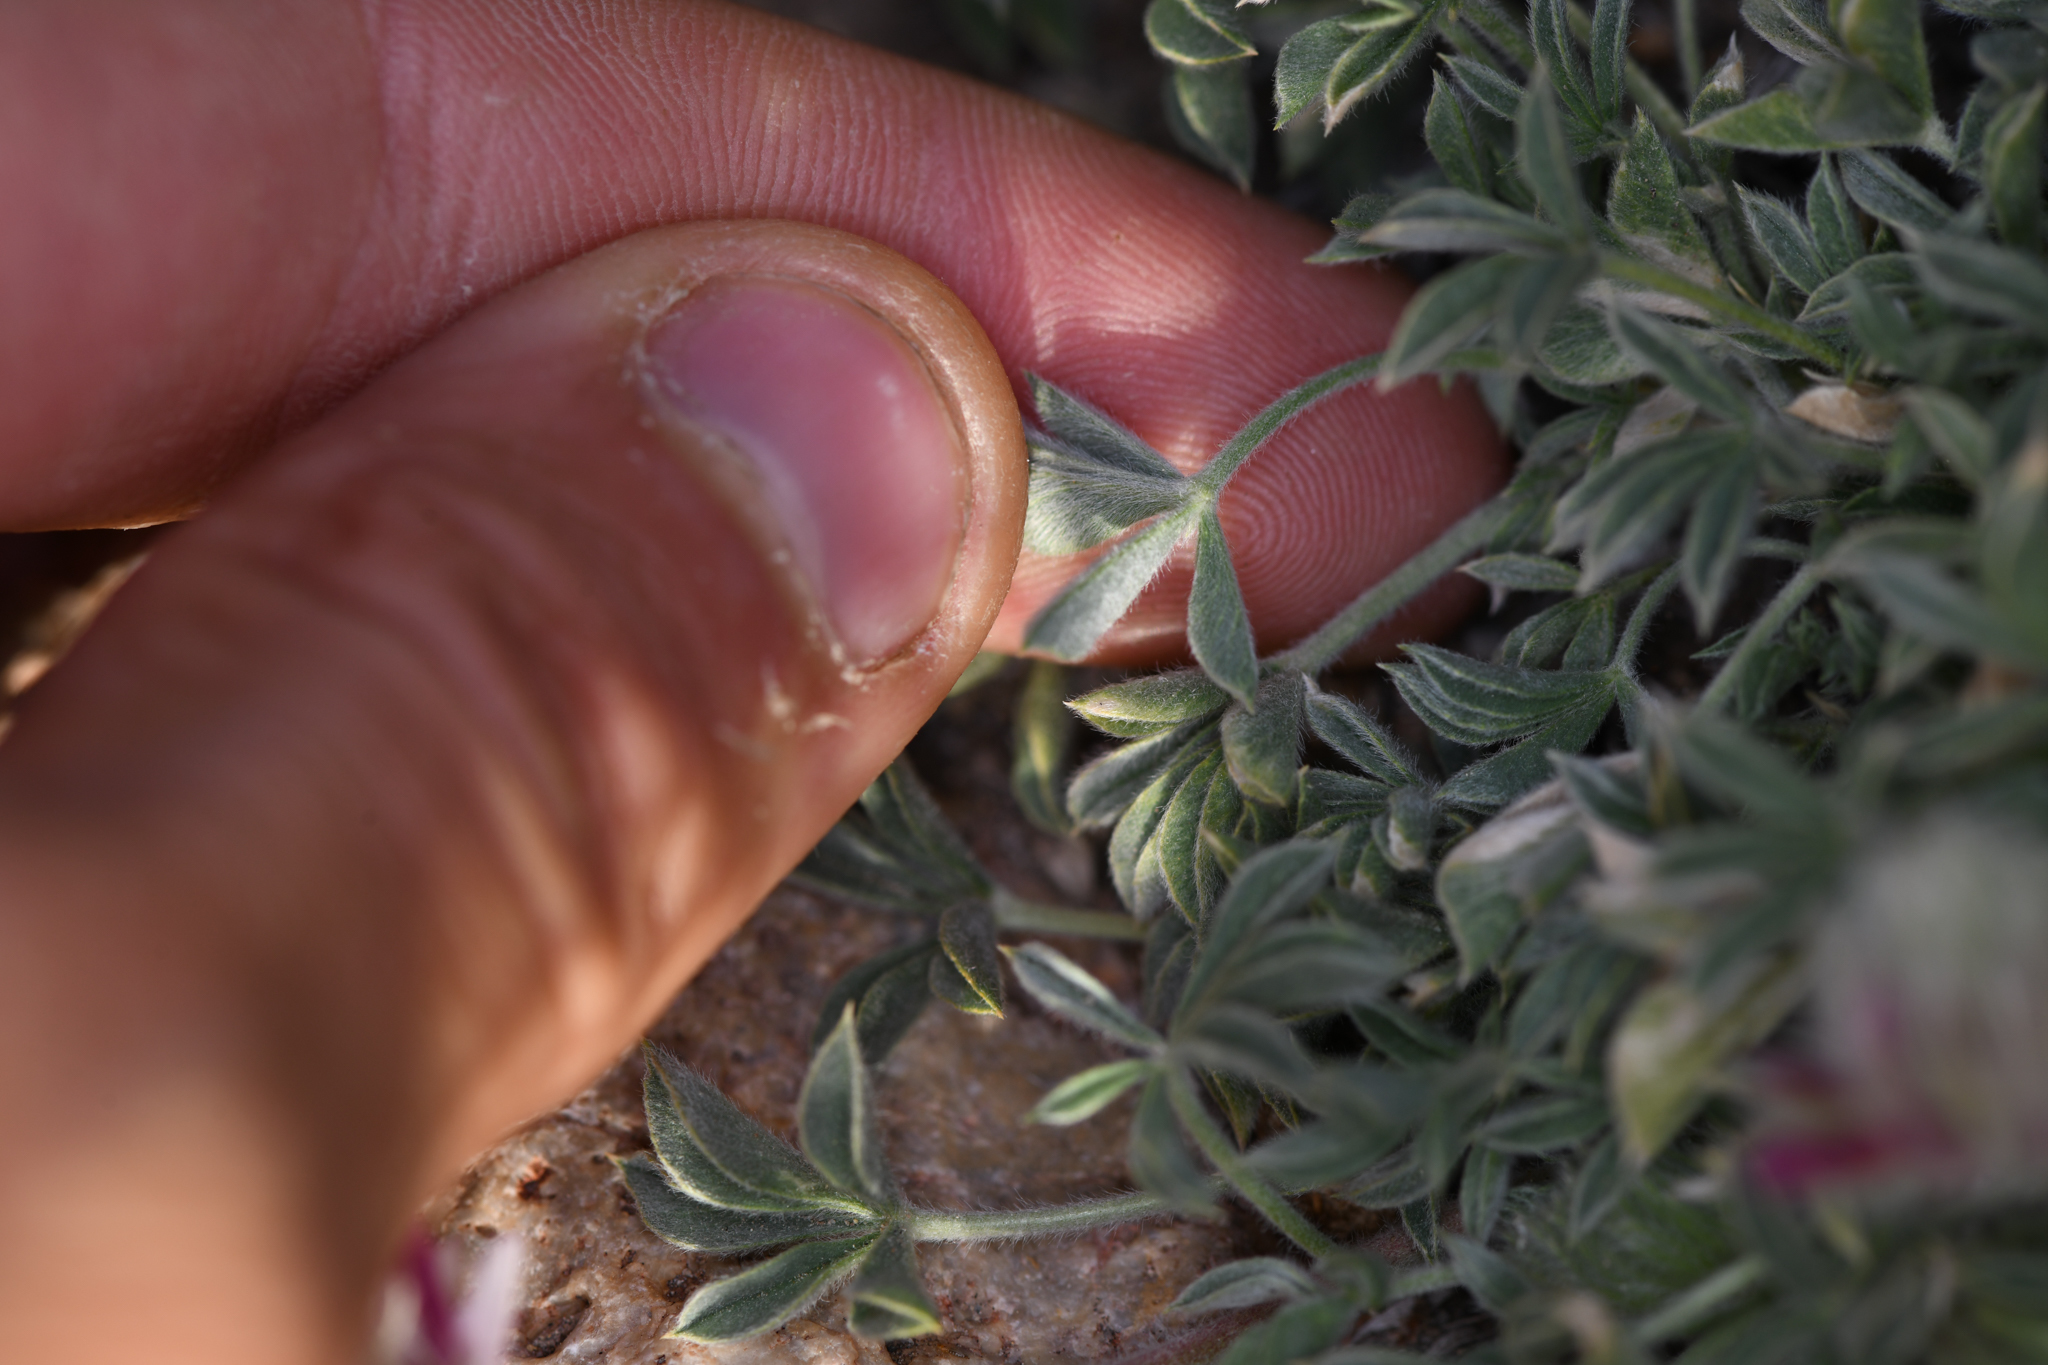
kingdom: Plantae
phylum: Tracheophyta
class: Magnoliopsida
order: Fabales
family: Fabaceae
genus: Trifolium
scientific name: Trifolium andersonii
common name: Anderson's clover
